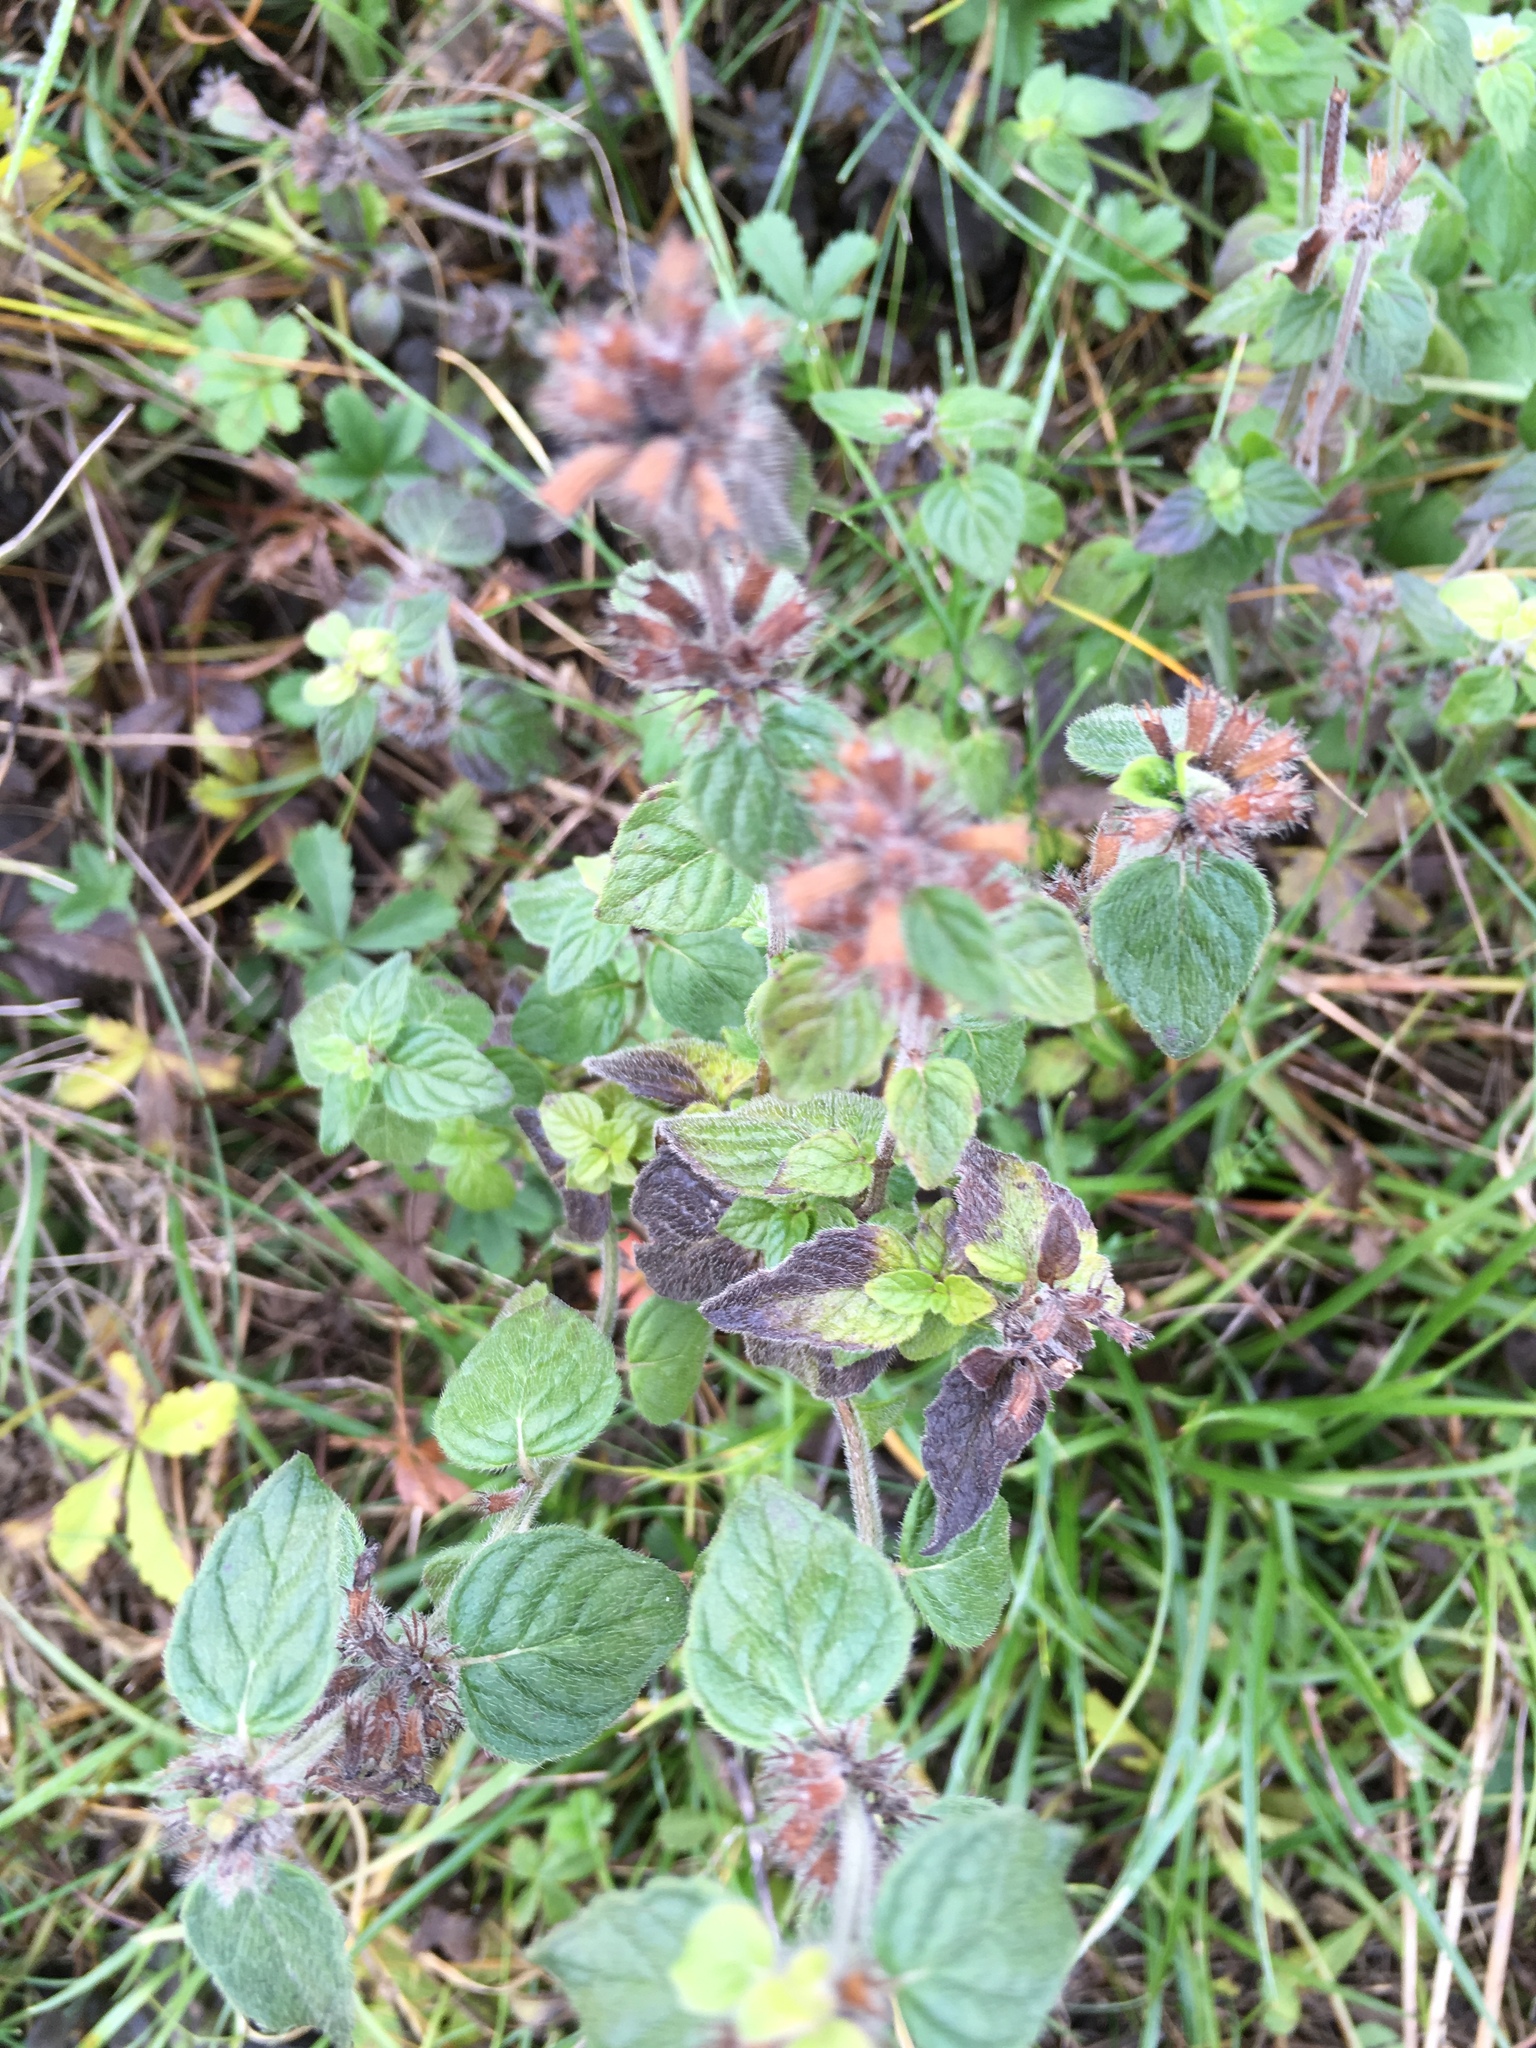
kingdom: Plantae
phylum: Tracheophyta
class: Magnoliopsida
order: Lamiales
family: Lamiaceae
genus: Clinopodium
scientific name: Clinopodium vulgare
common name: Wild basil
